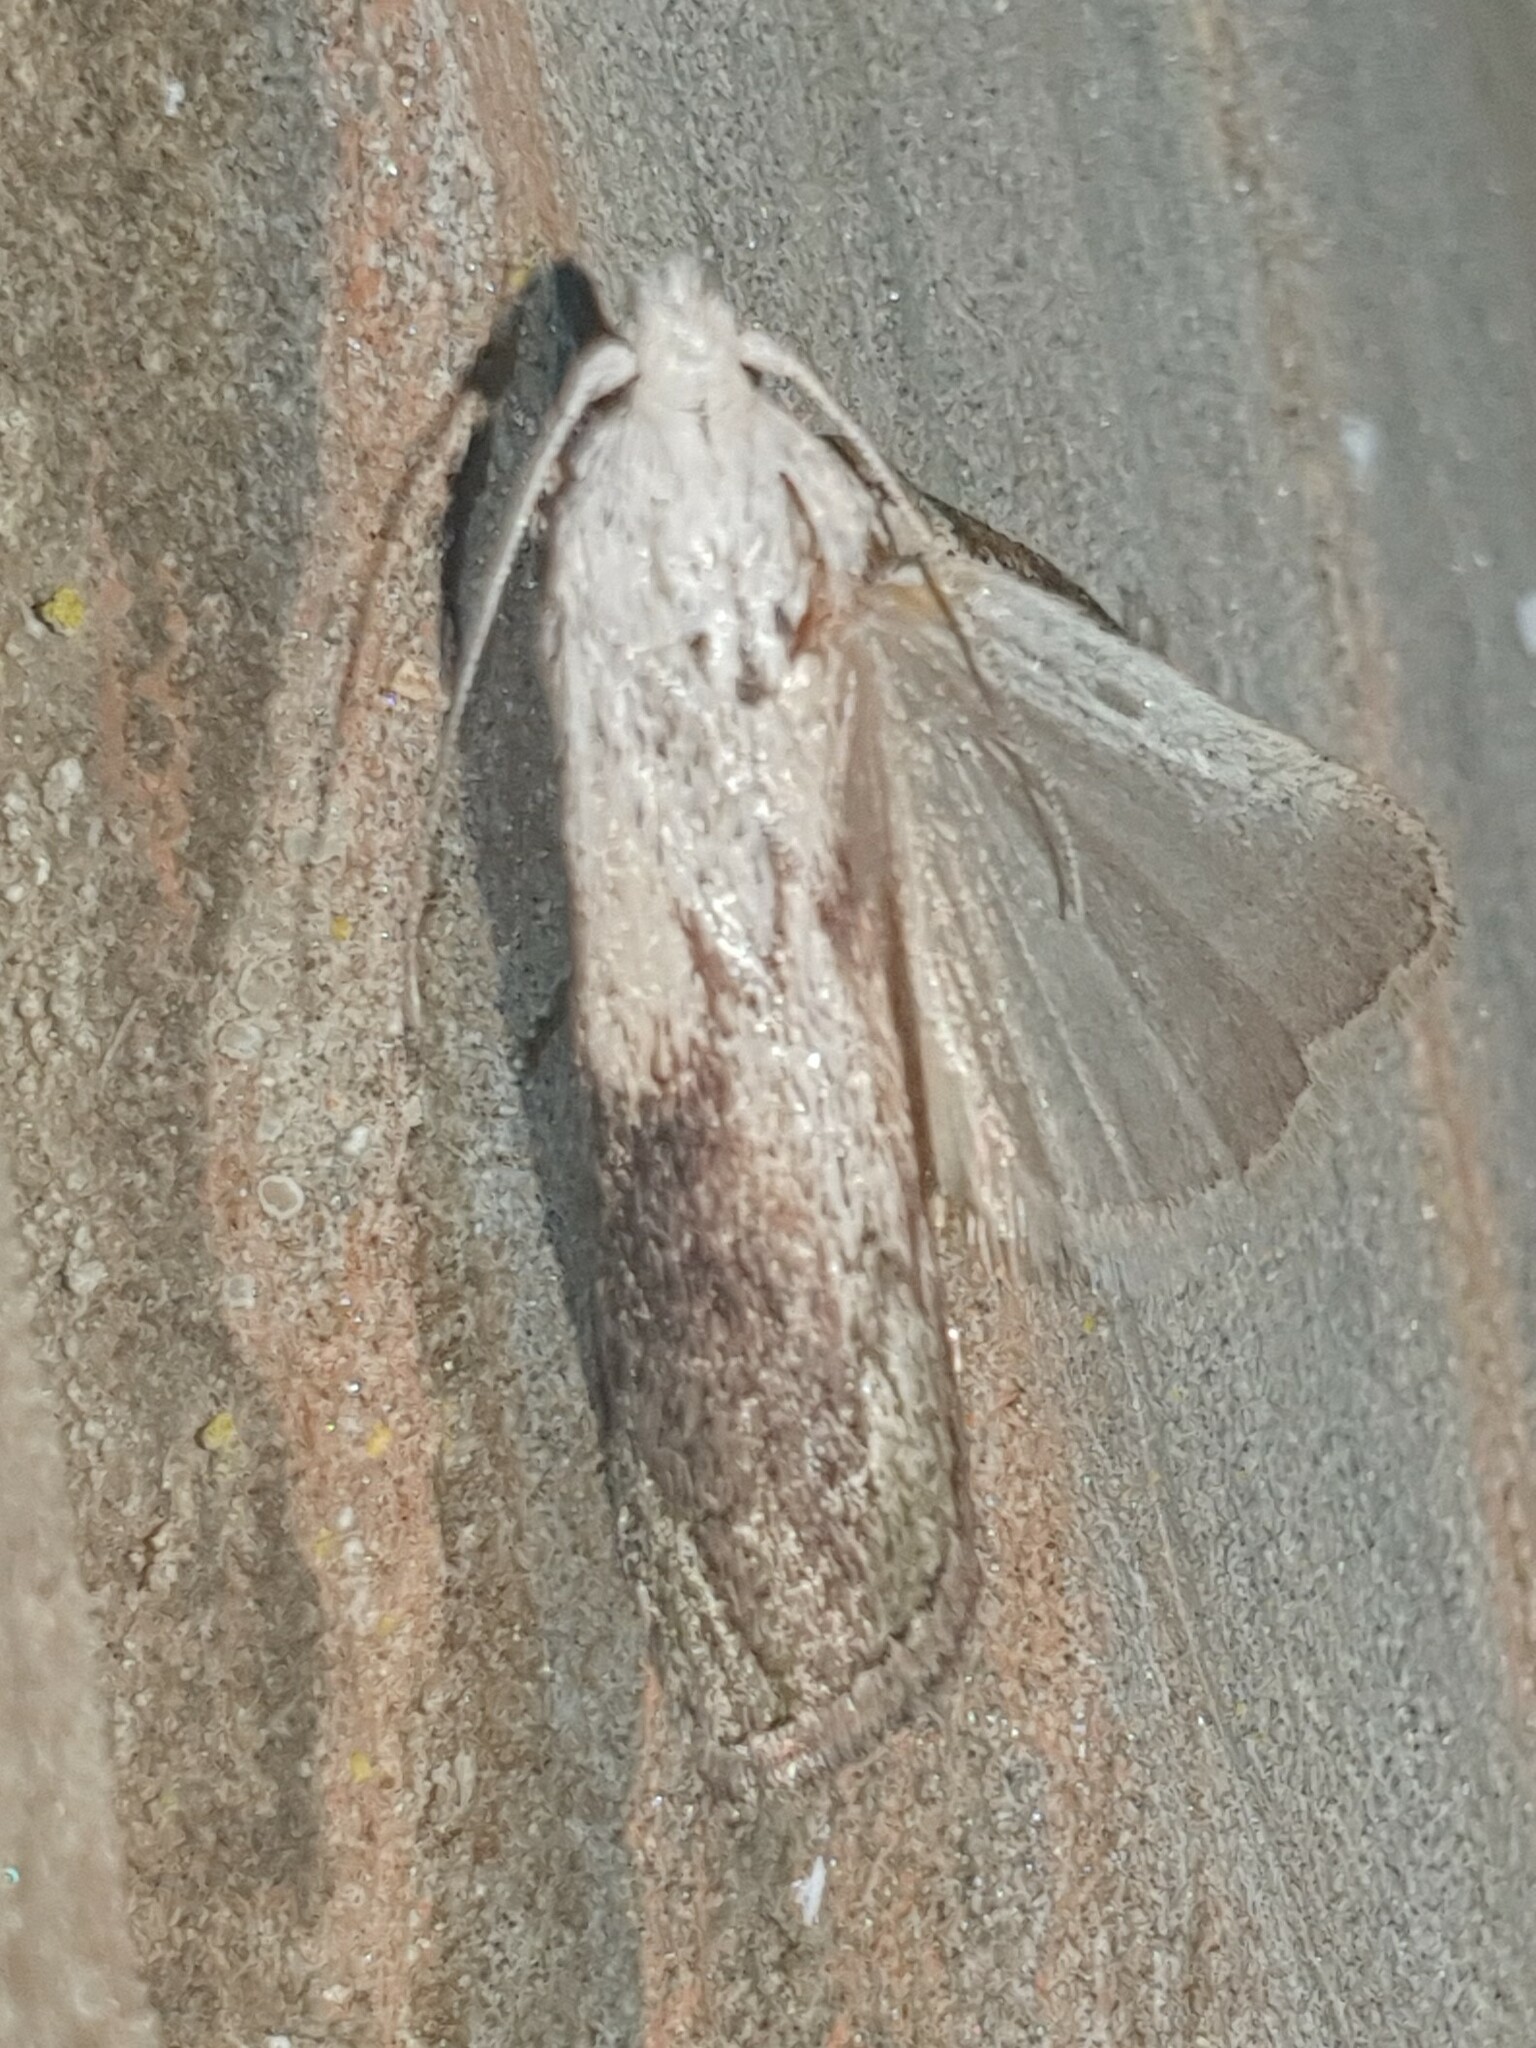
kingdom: Animalia
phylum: Arthropoda
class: Insecta
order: Lepidoptera
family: Pyralidae
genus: Aphomia
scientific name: Aphomia sociella
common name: Bee moth
